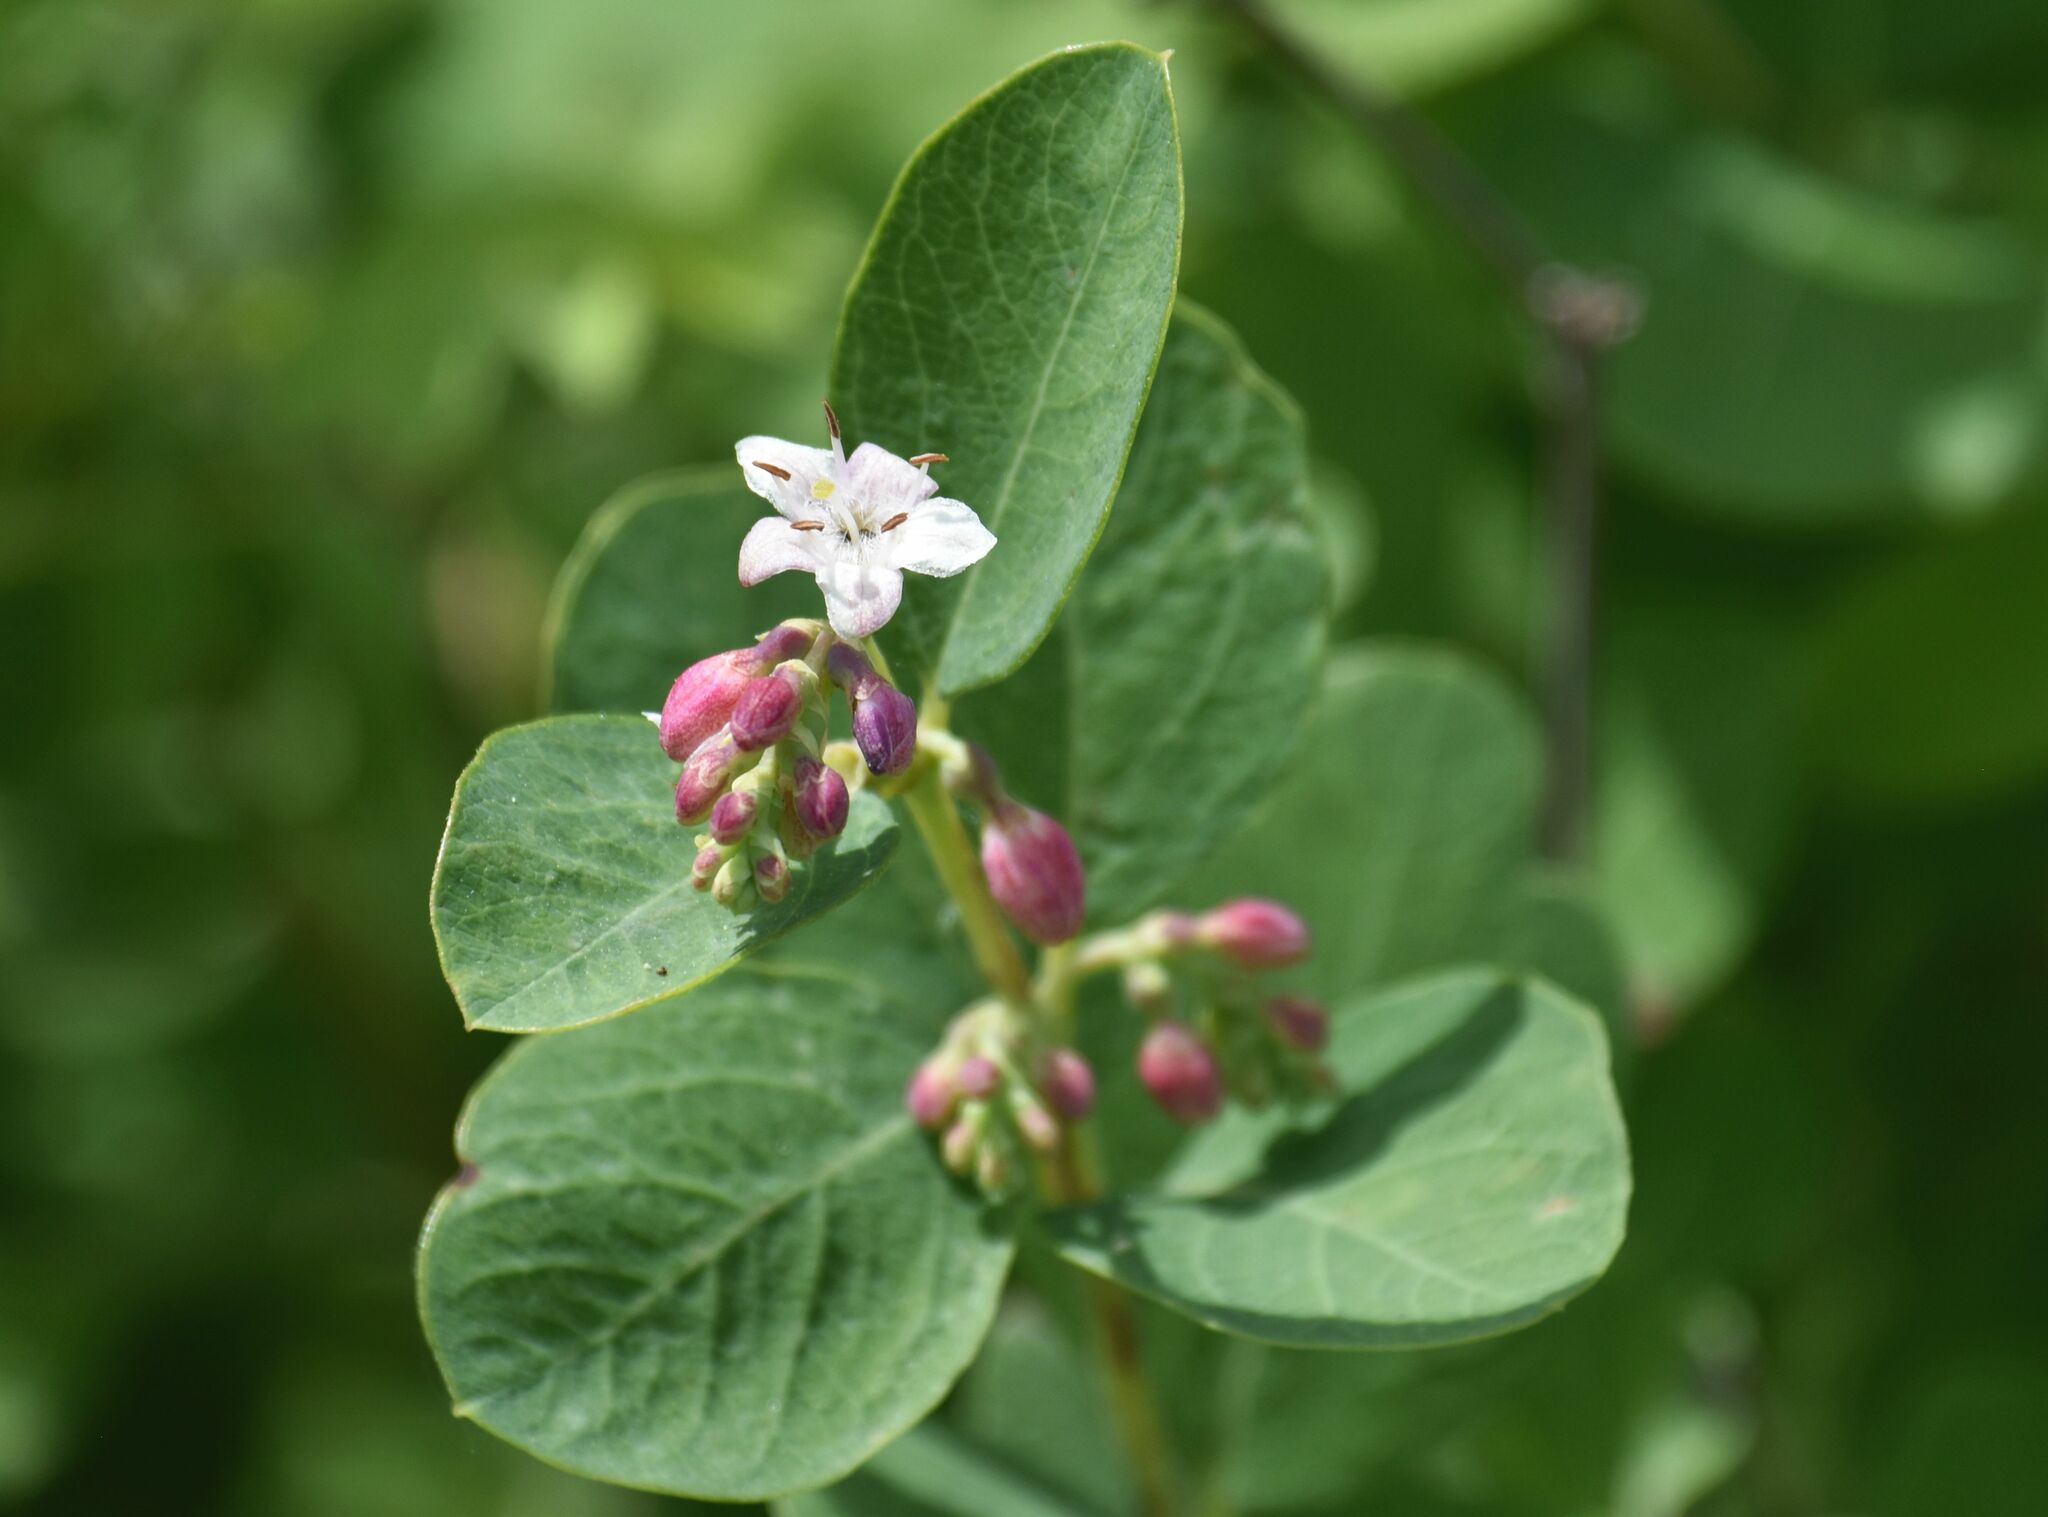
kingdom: Plantae
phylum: Tracheophyta
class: Magnoliopsida
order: Dipsacales
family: Caprifoliaceae
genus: Symphoricarpos
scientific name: Symphoricarpos occidentalis
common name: Wolfberry
